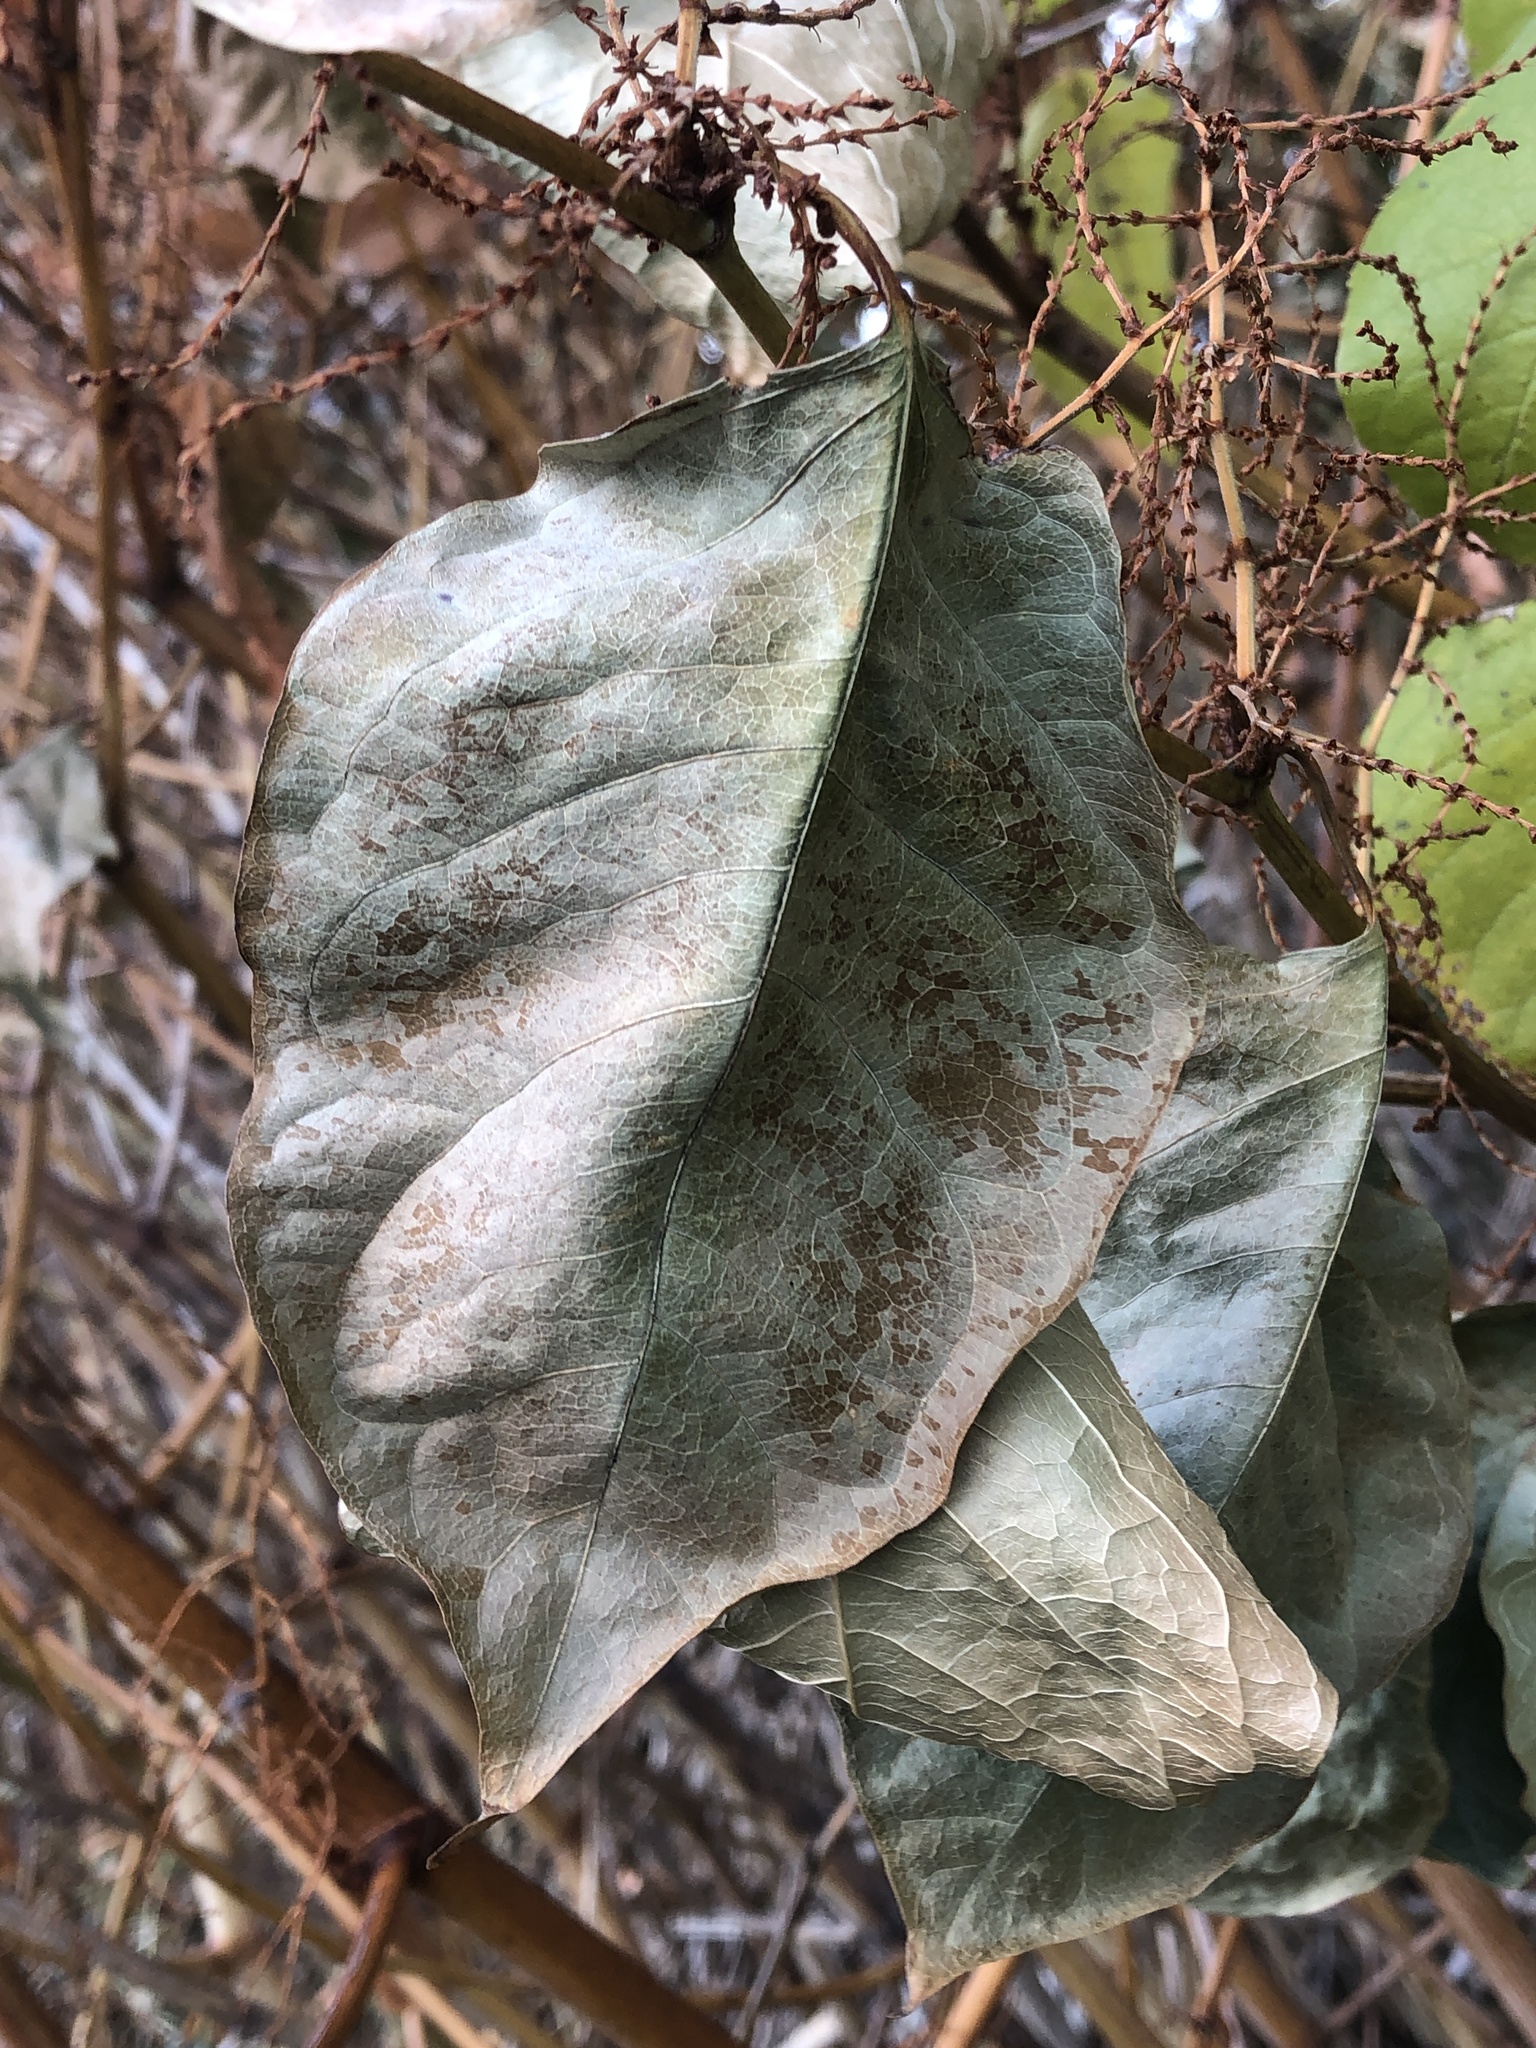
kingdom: Plantae
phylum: Tracheophyta
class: Magnoliopsida
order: Caryophyllales
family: Polygonaceae
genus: Reynoutria
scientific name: Reynoutria japonica
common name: Japanese knotweed
